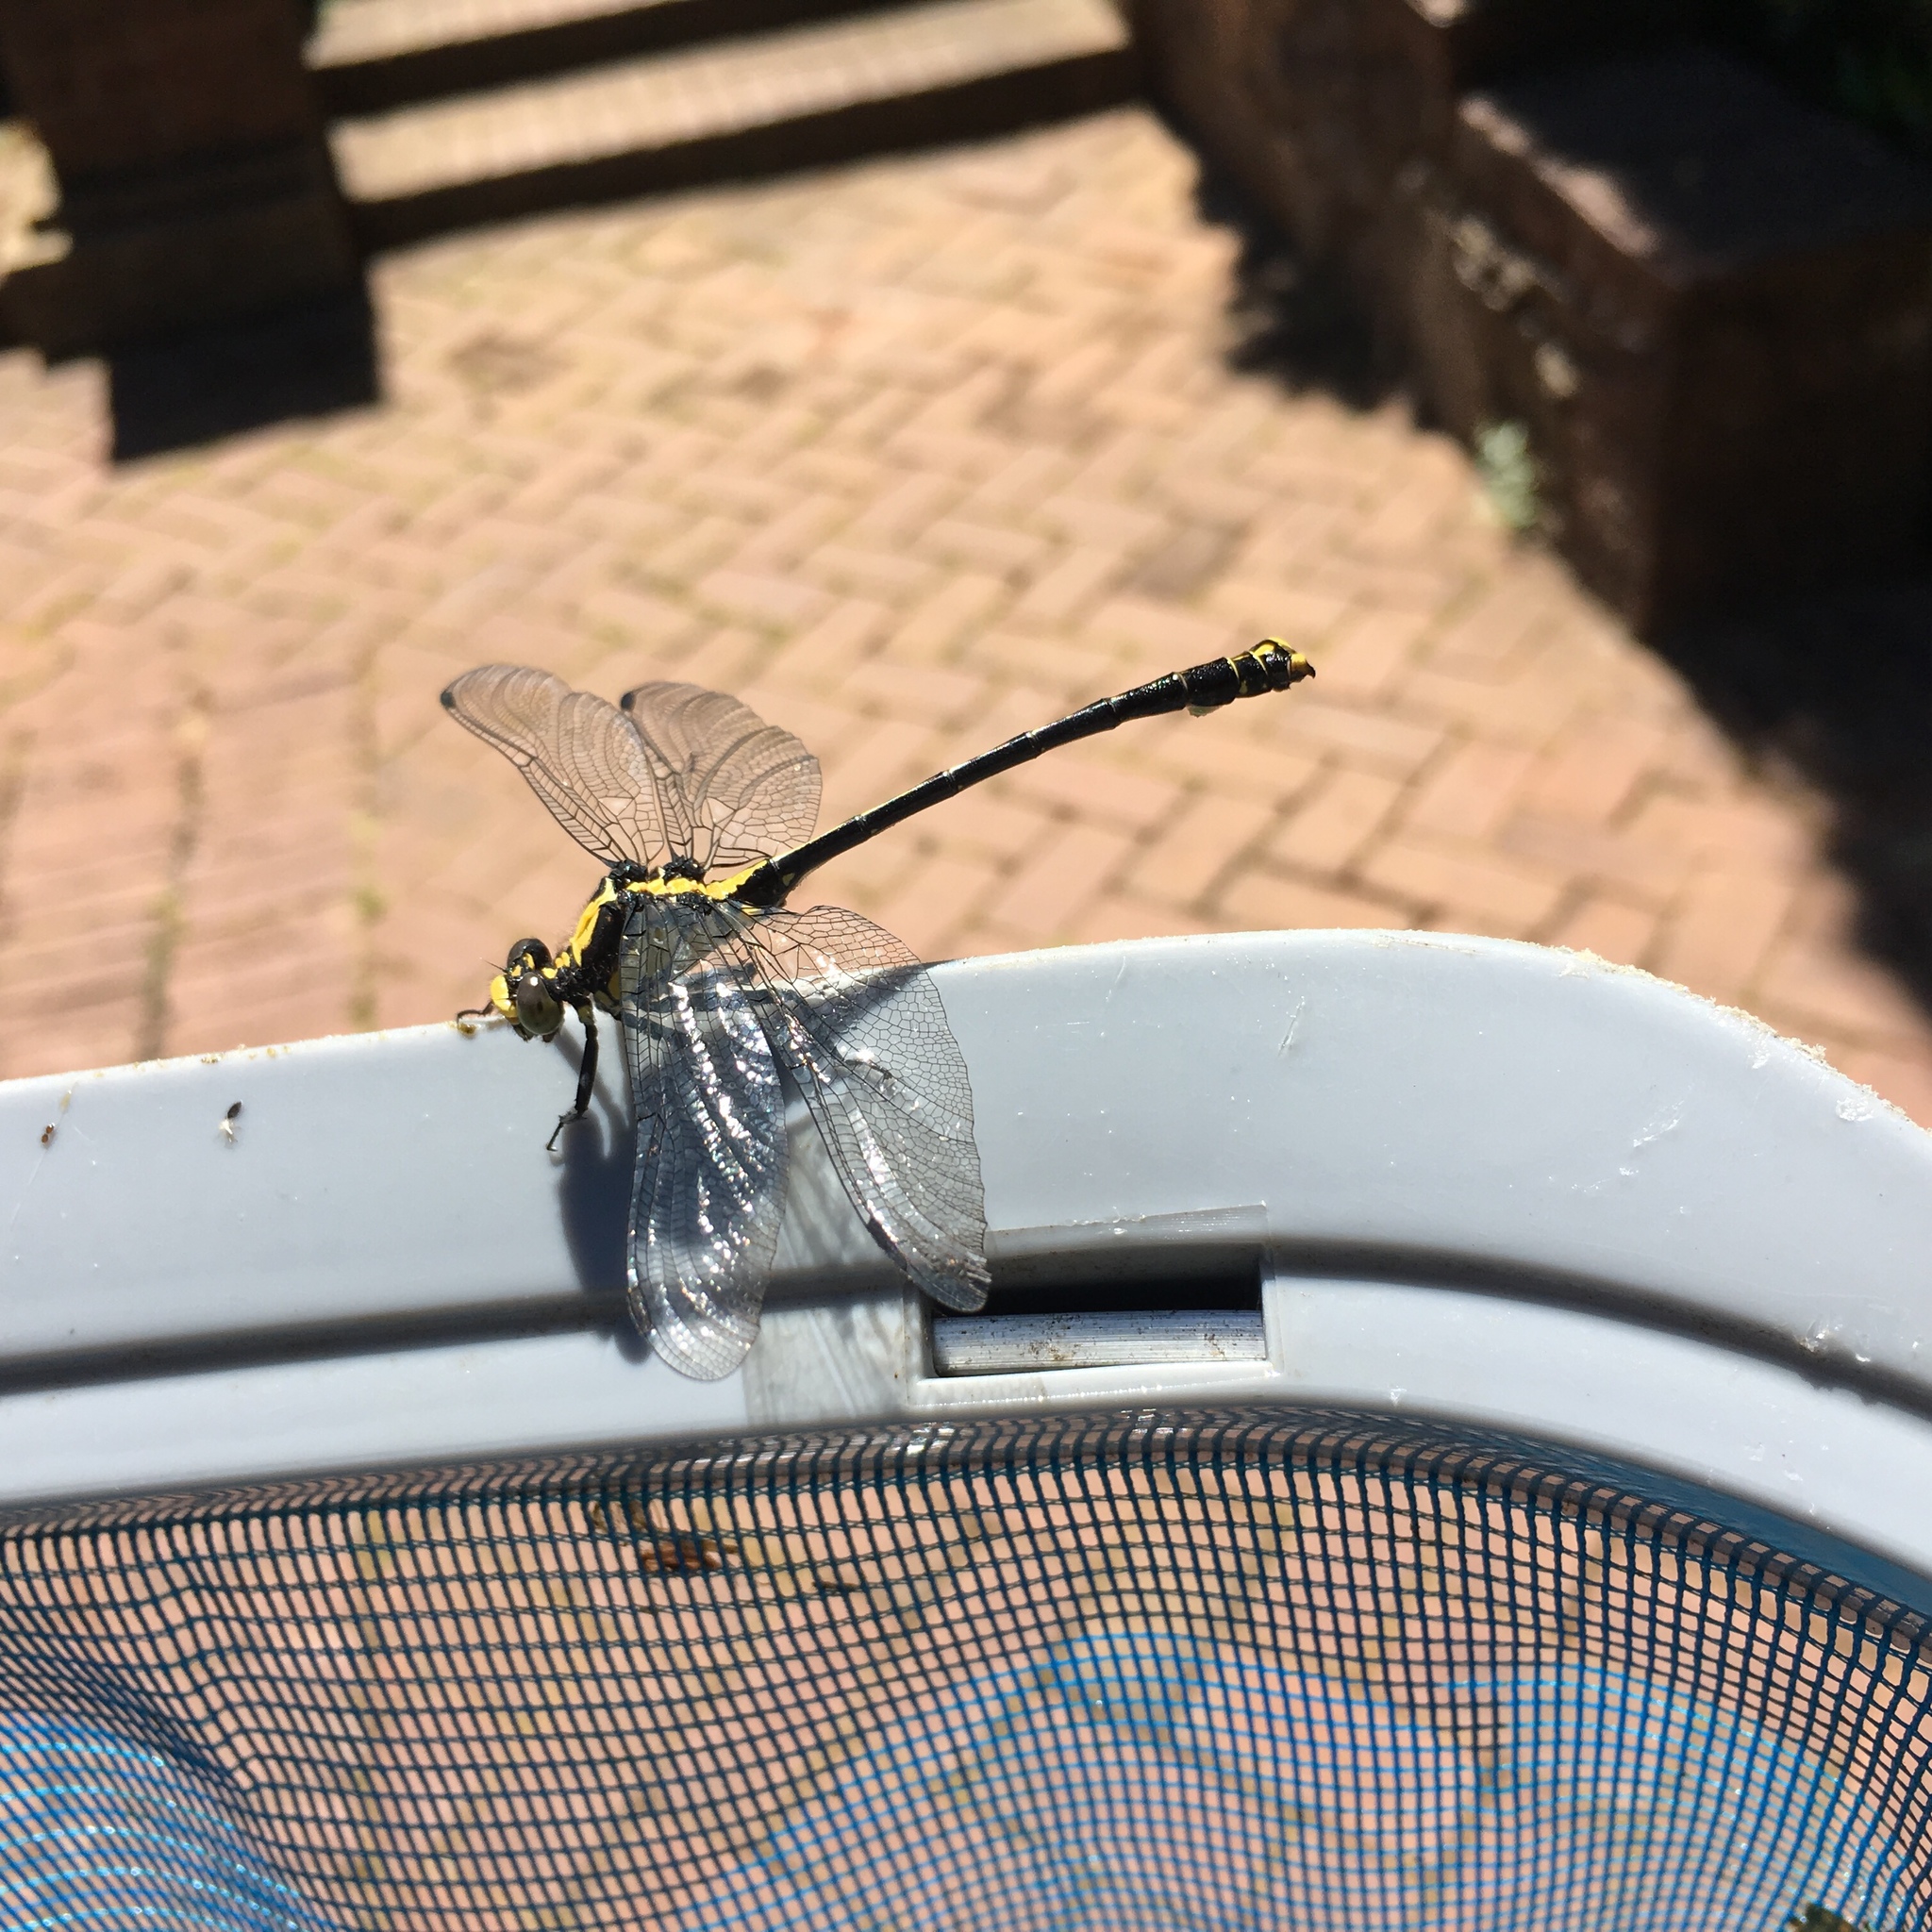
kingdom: Animalia
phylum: Arthropoda
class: Insecta
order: Odonata
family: Gomphidae
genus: Octogomphus
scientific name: Octogomphus specularis
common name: Grappletail
